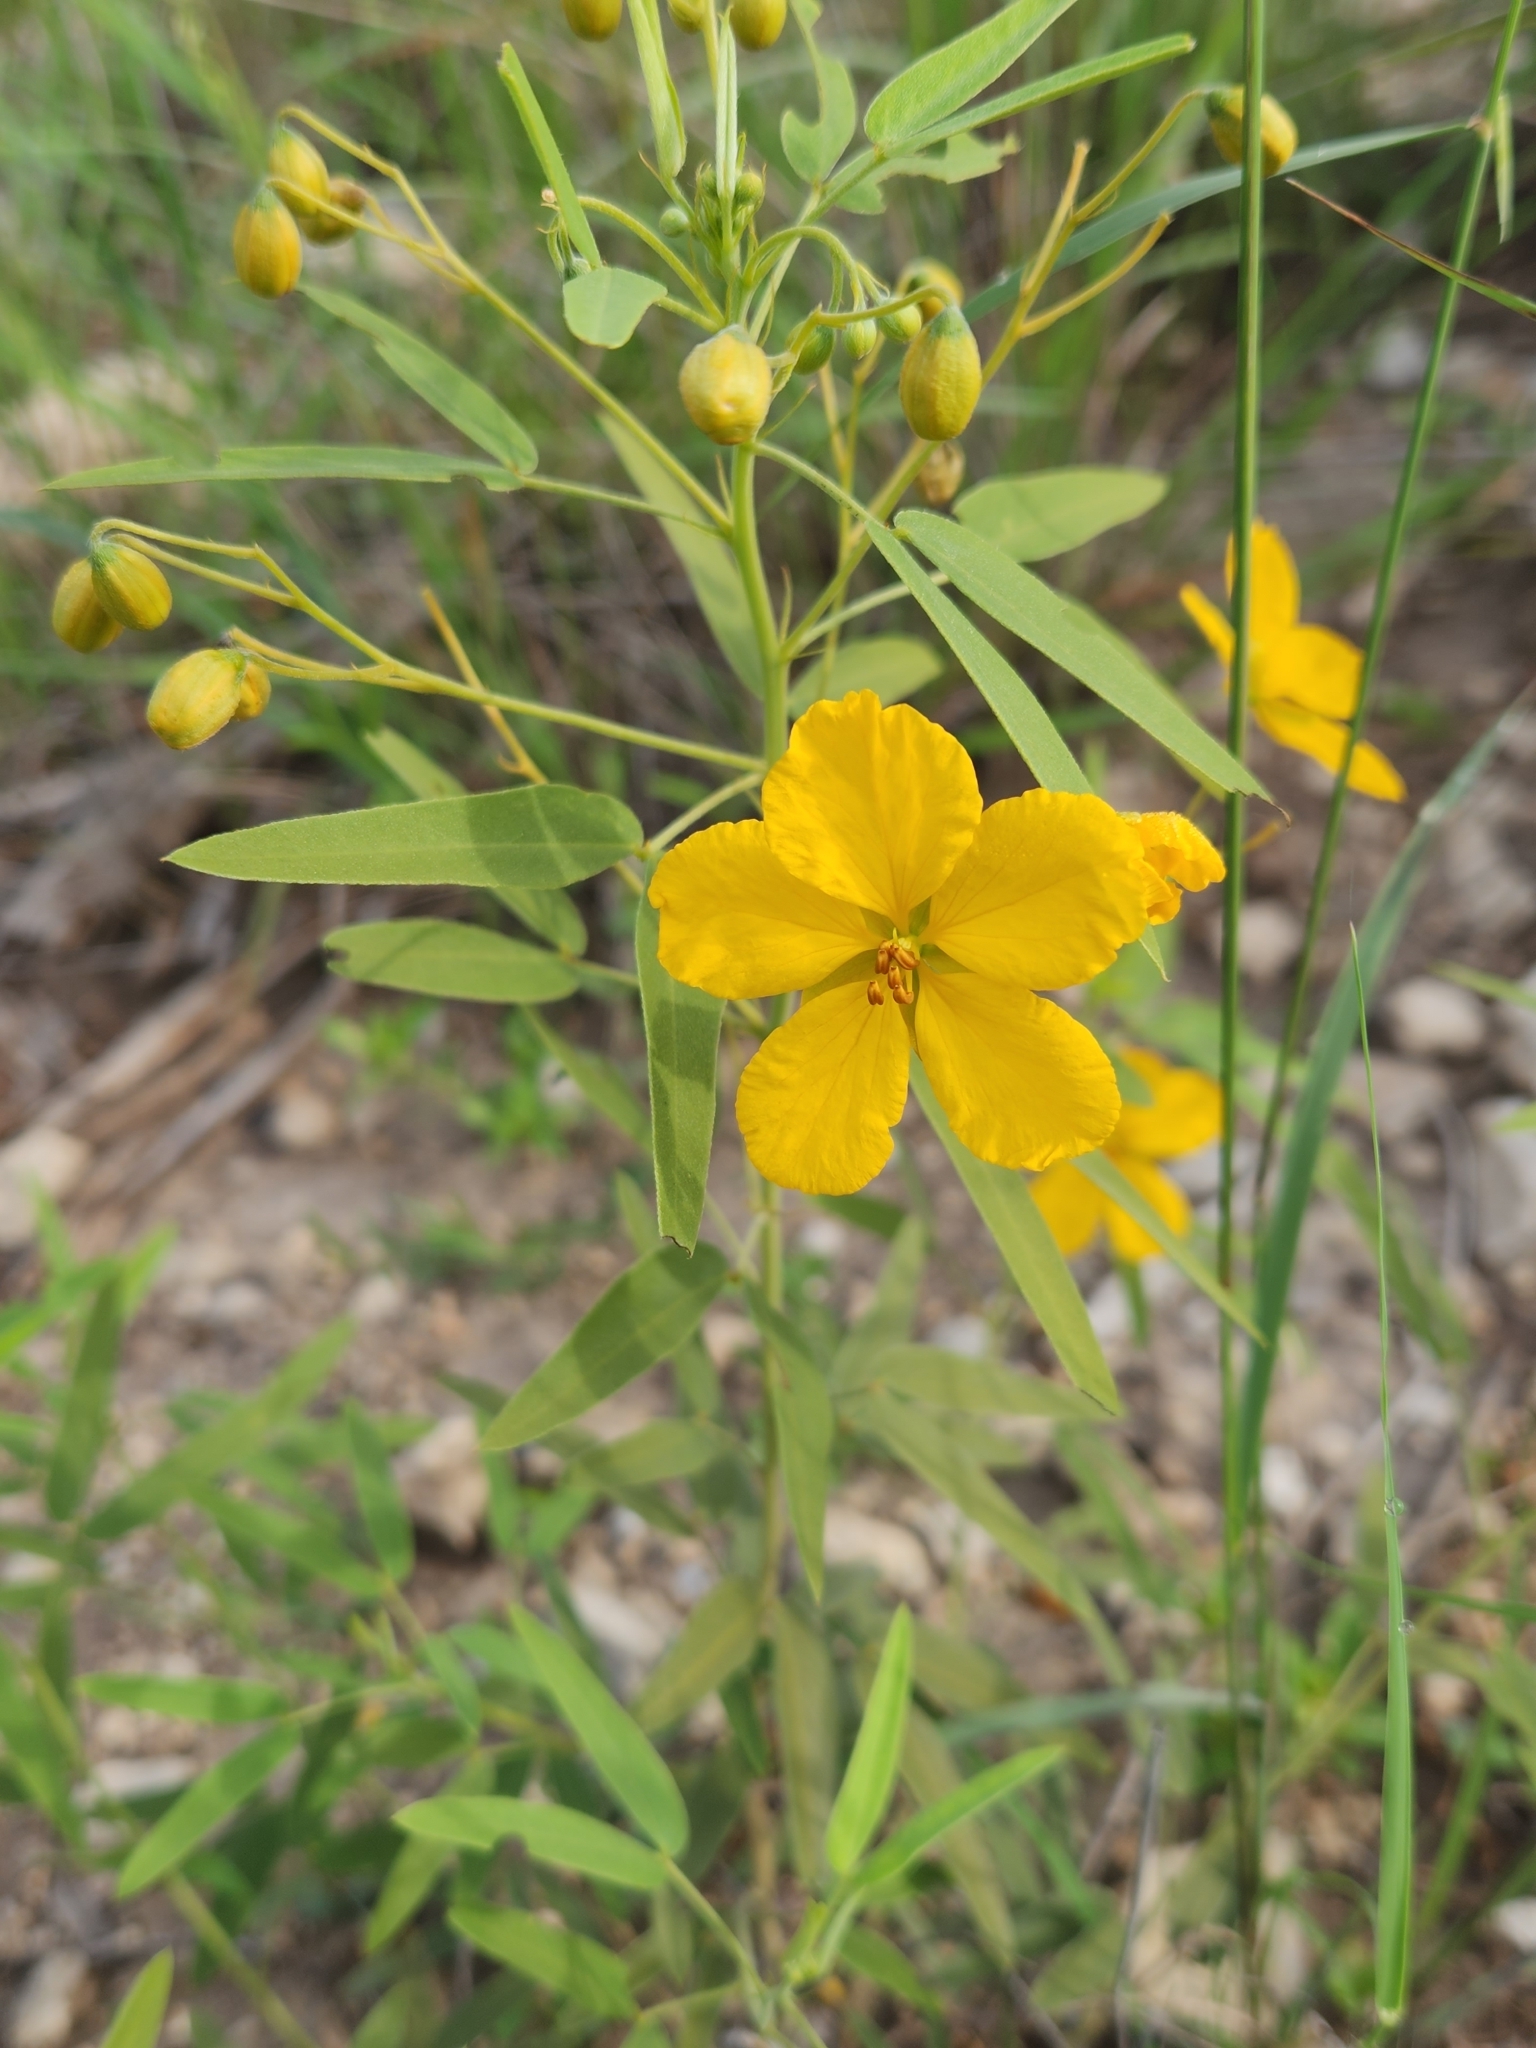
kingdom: Plantae
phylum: Tracheophyta
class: Magnoliopsida
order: Fabales
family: Fabaceae
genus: Senna
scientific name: Senna roemeriana
